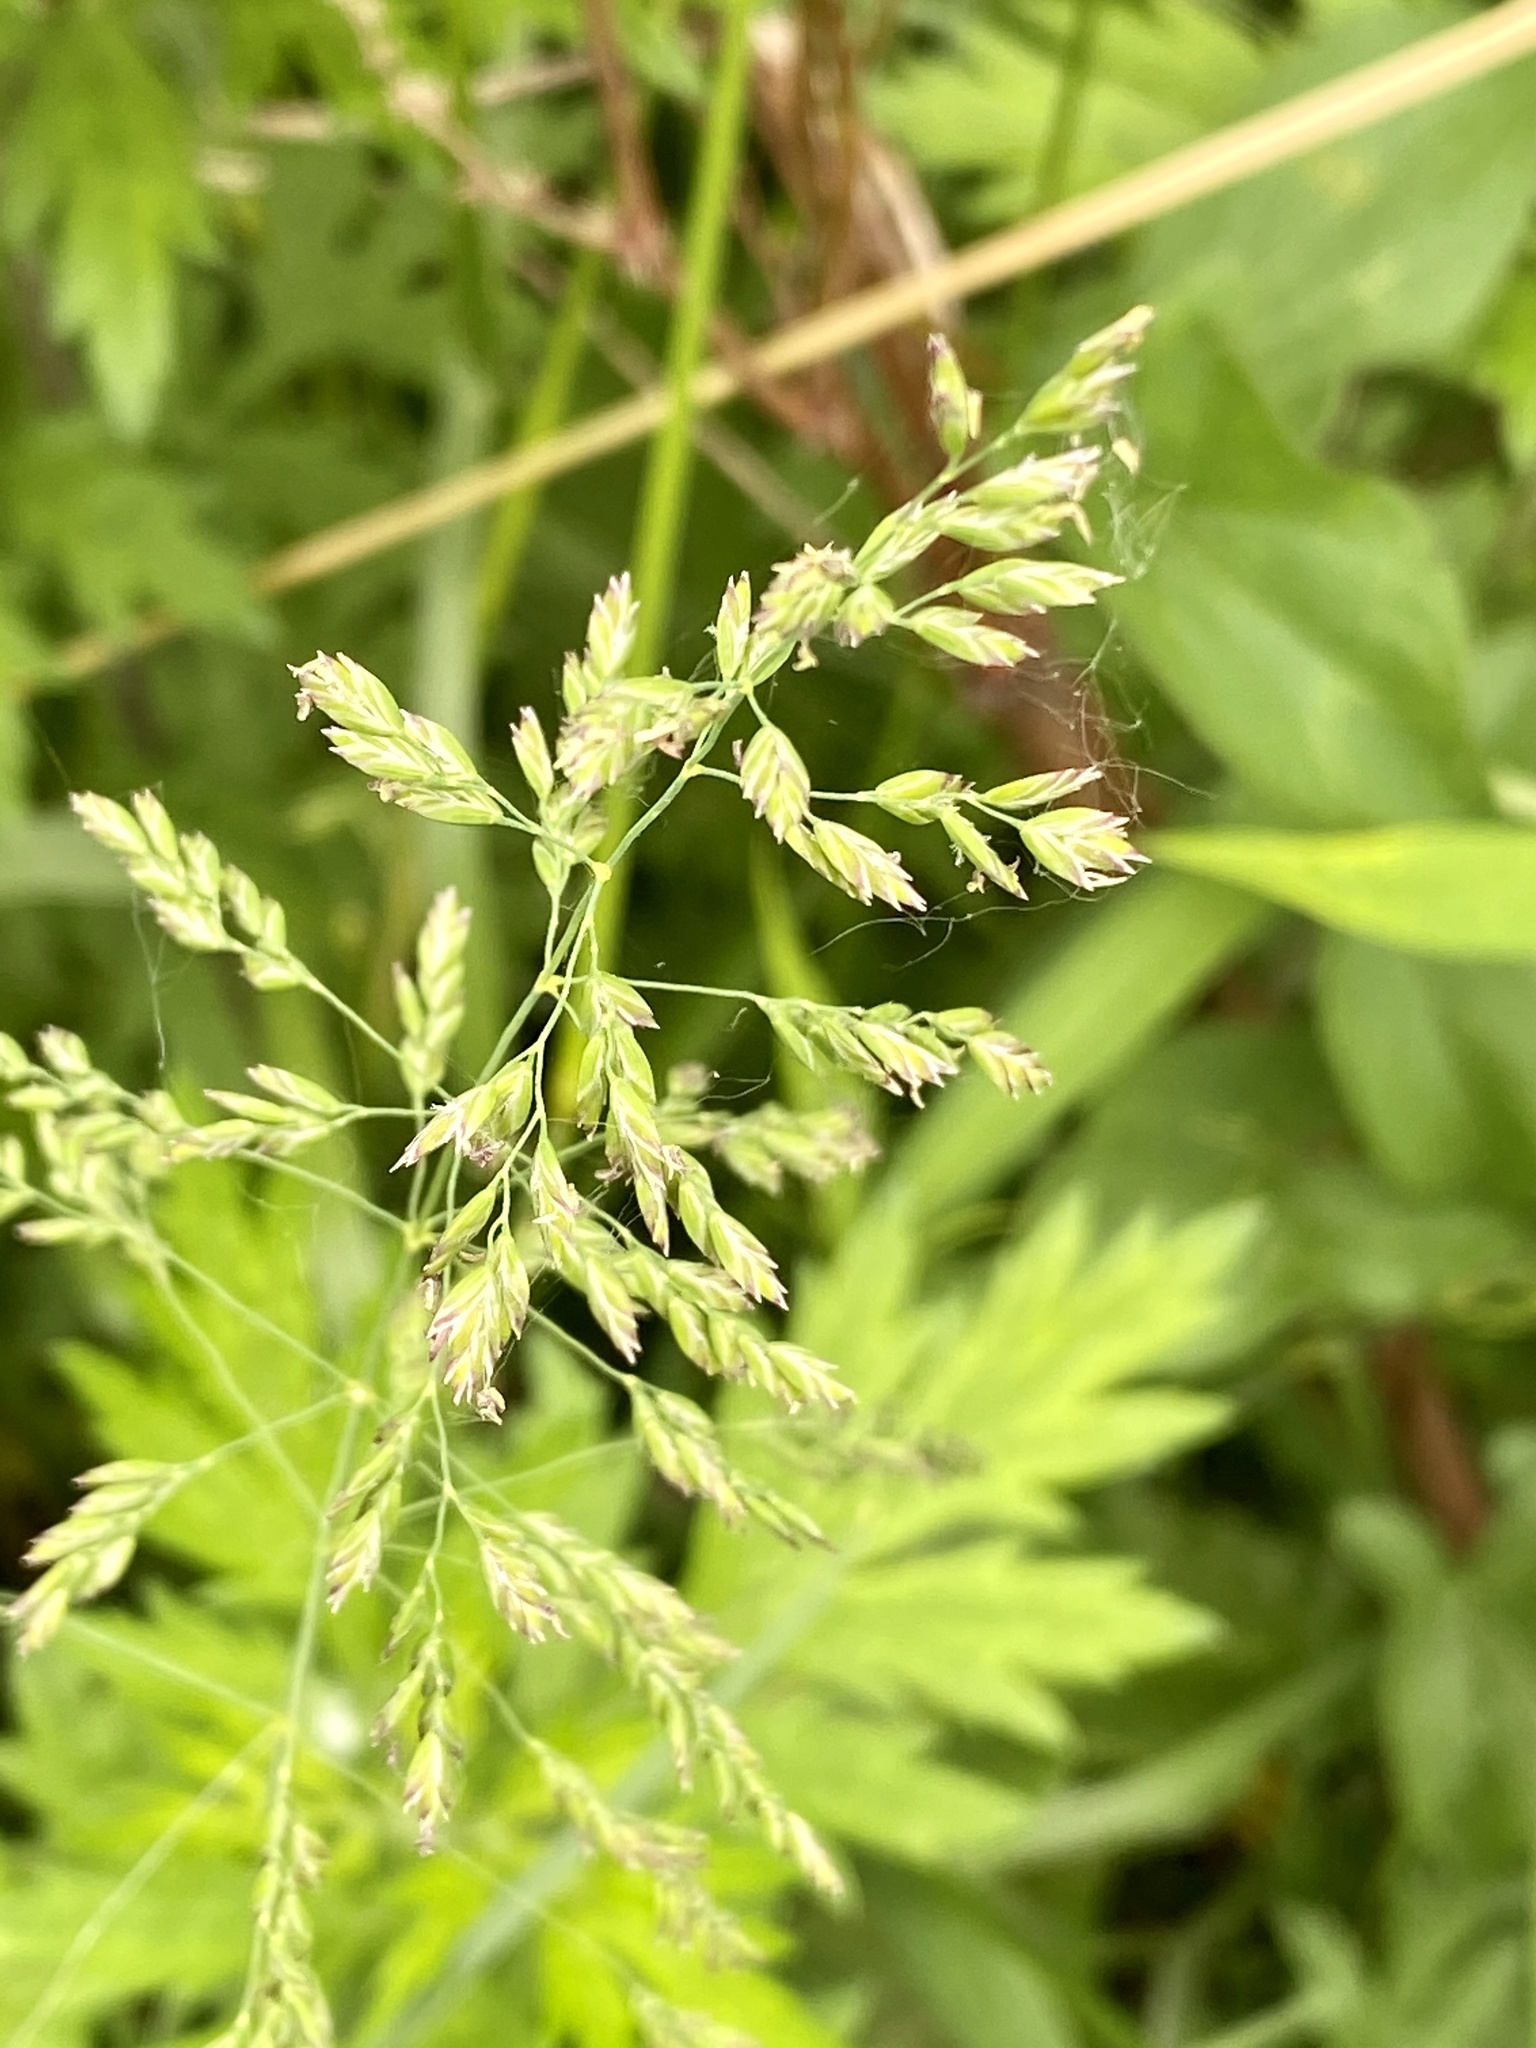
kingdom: Plantae
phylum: Tracheophyta
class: Liliopsida
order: Poales
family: Poaceae
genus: Poa
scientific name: Poa pratensis
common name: Kentucky bluegrass
